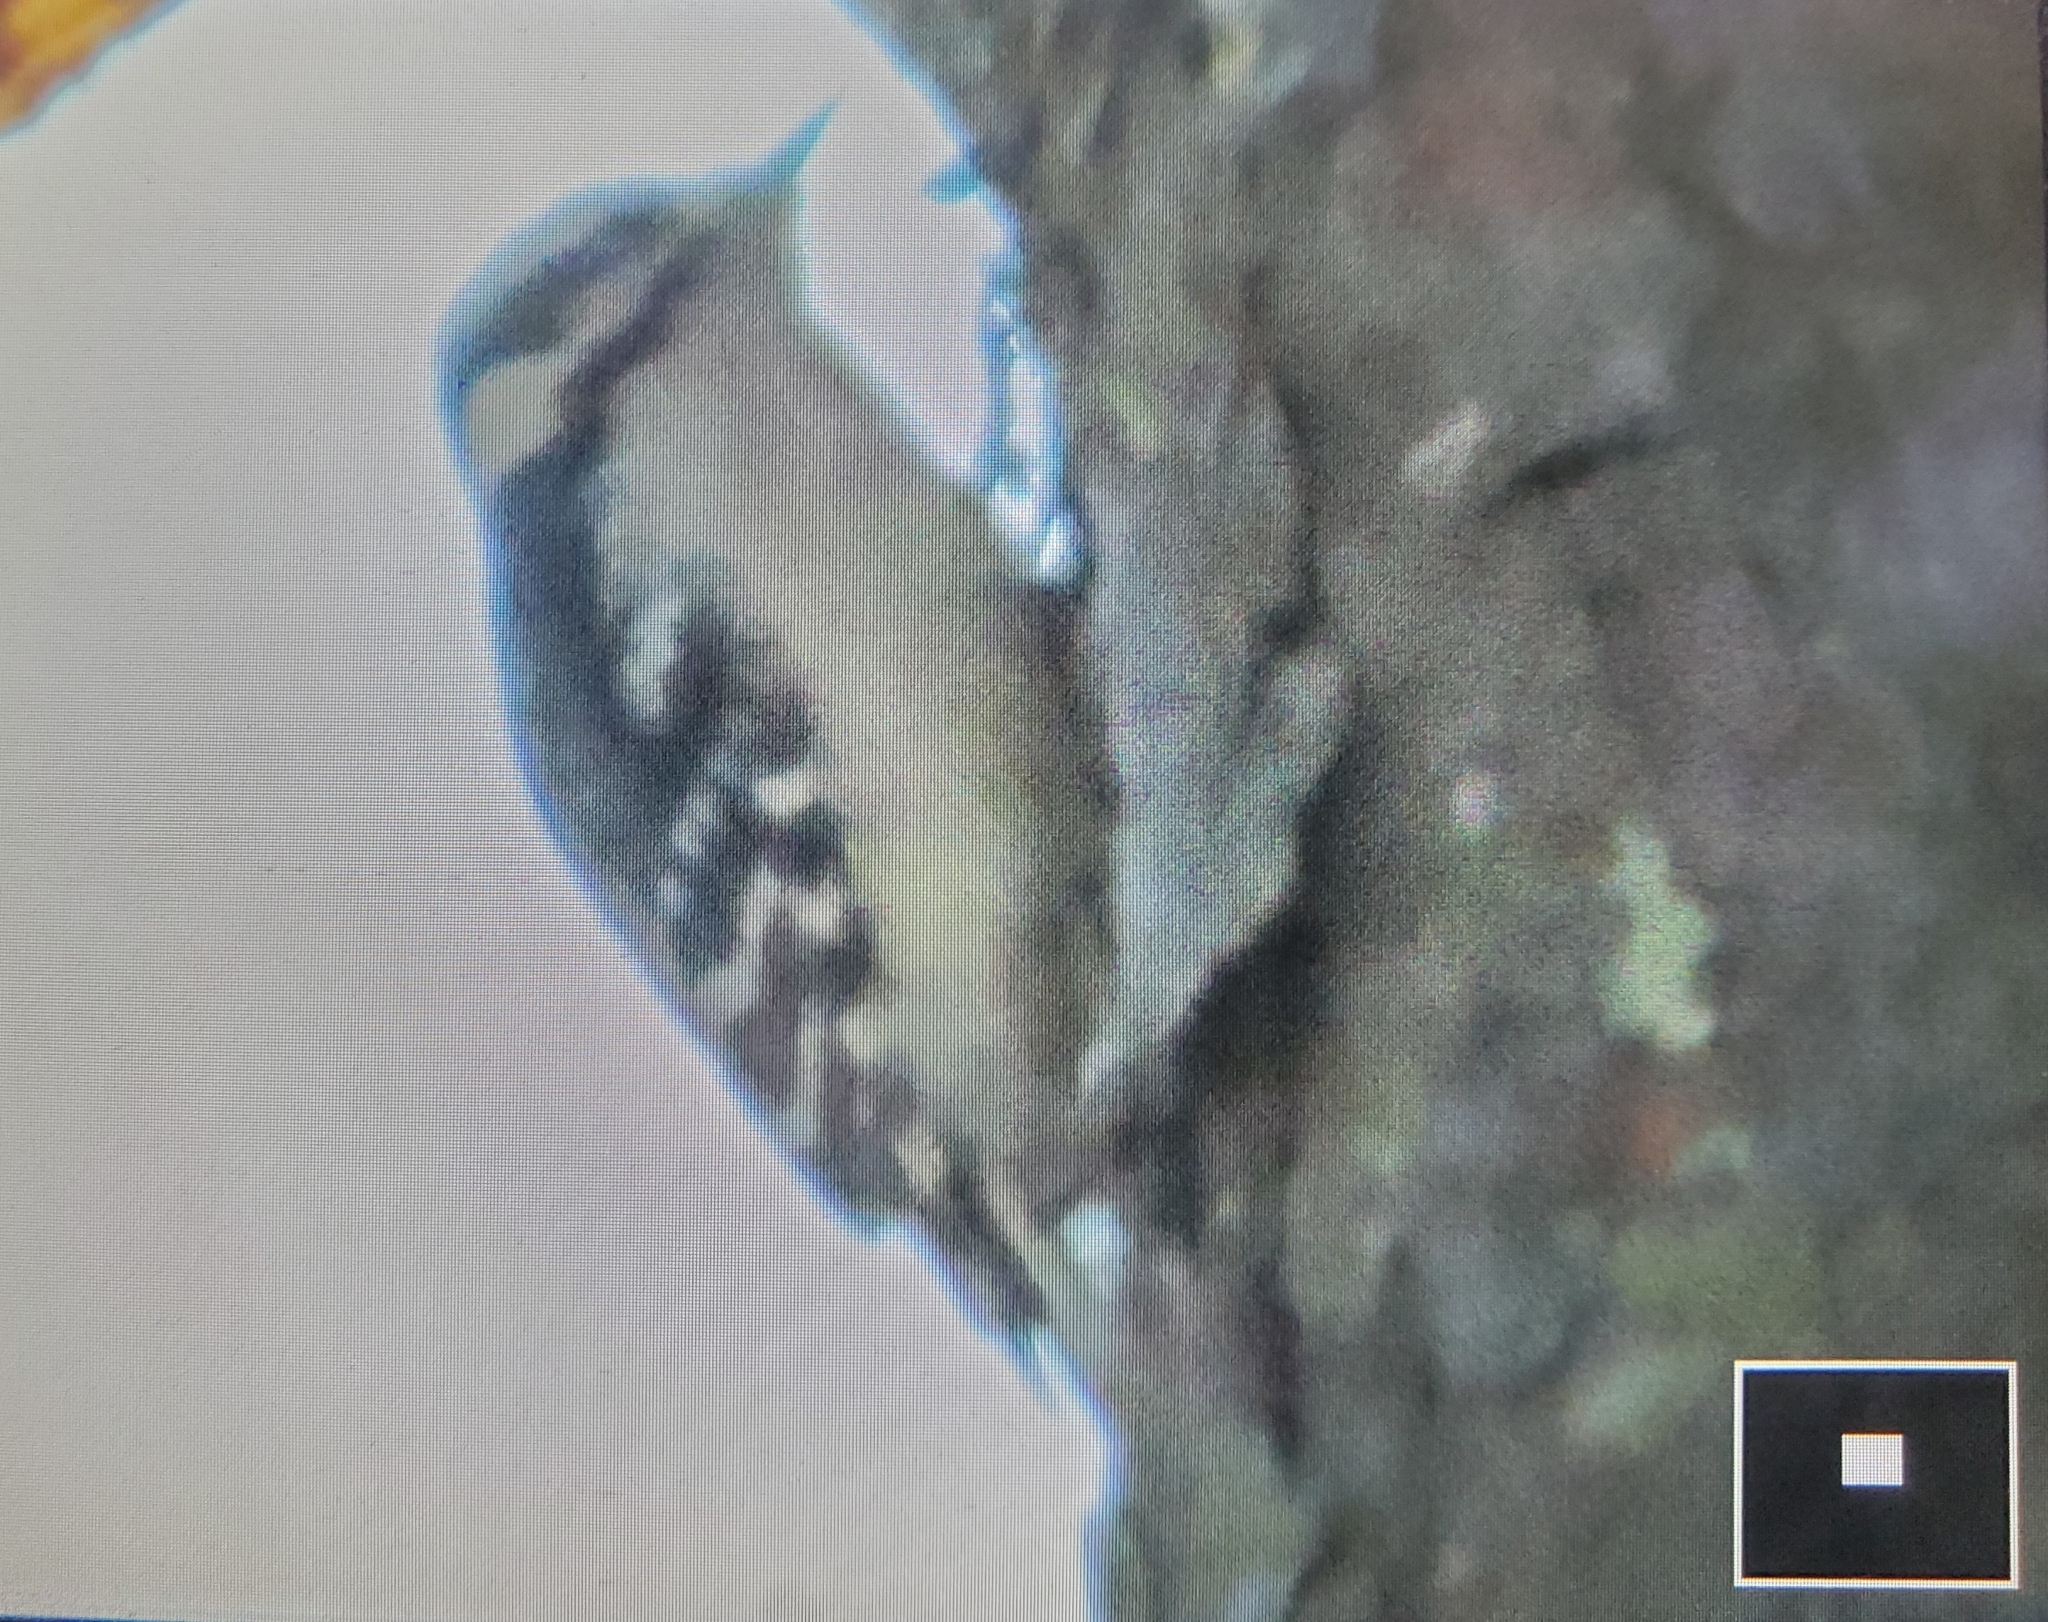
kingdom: Animalia
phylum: Chordata
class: Aves
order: Piciformes
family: Picidae
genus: Dryobates
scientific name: Dryobates pubescens
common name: Downy woodpecker
